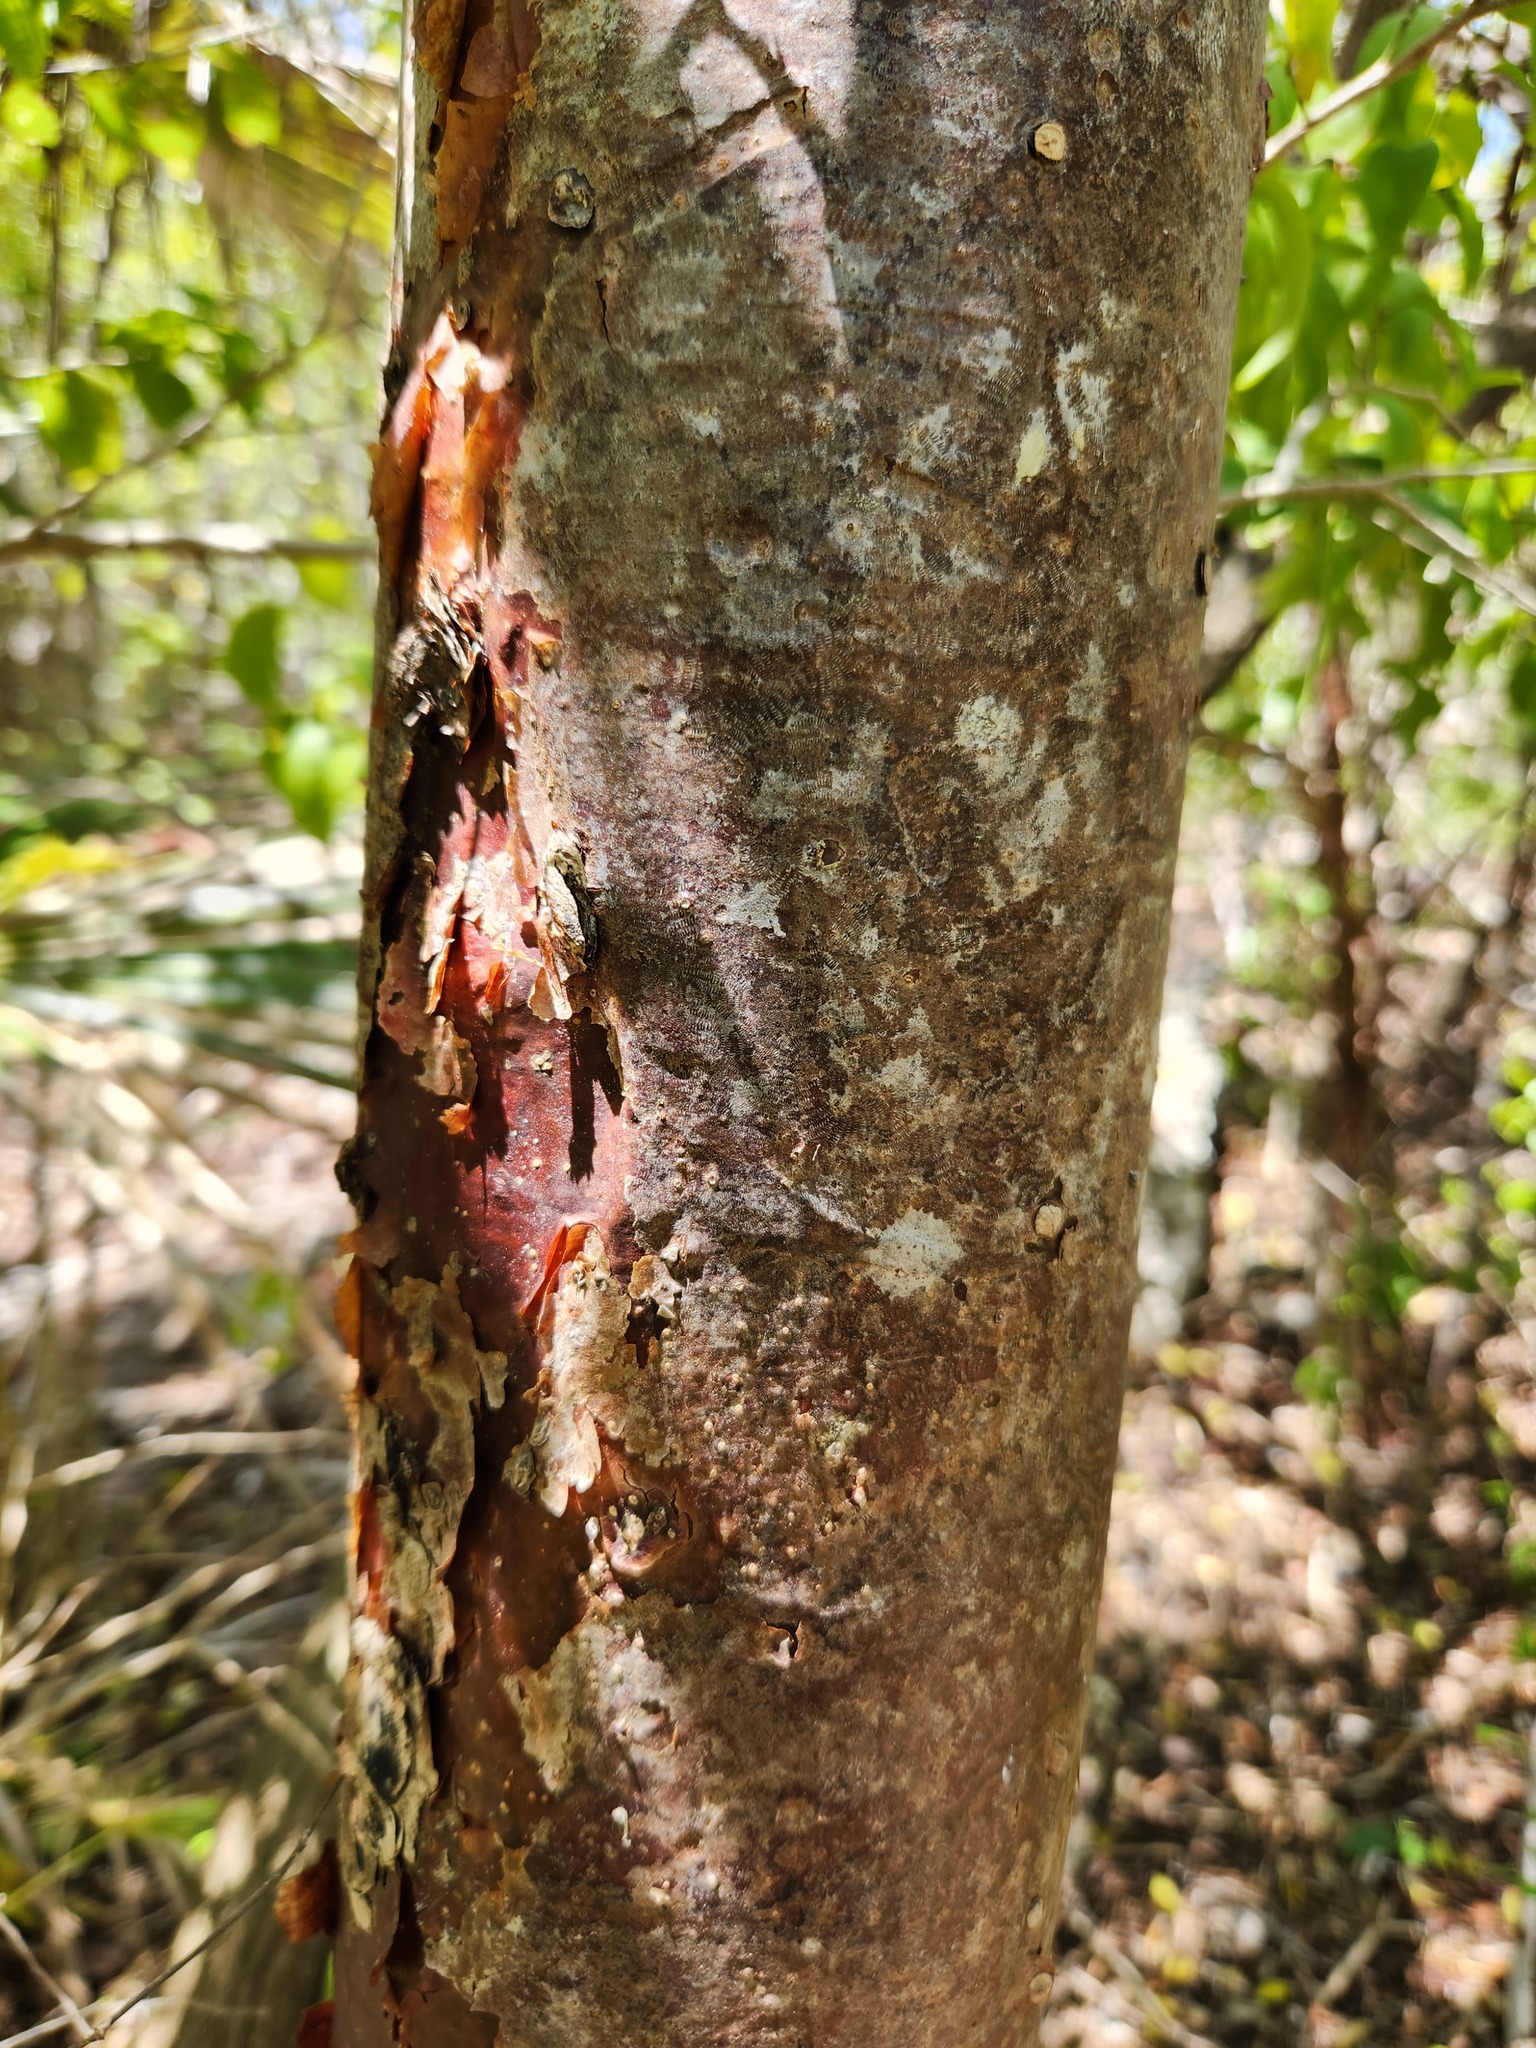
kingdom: Plantae
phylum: Tracheophyta
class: Magnoliopsida
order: Sapindales
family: Burseraceae
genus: Bursera
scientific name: Bursera simaruba
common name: Turpentine tree
